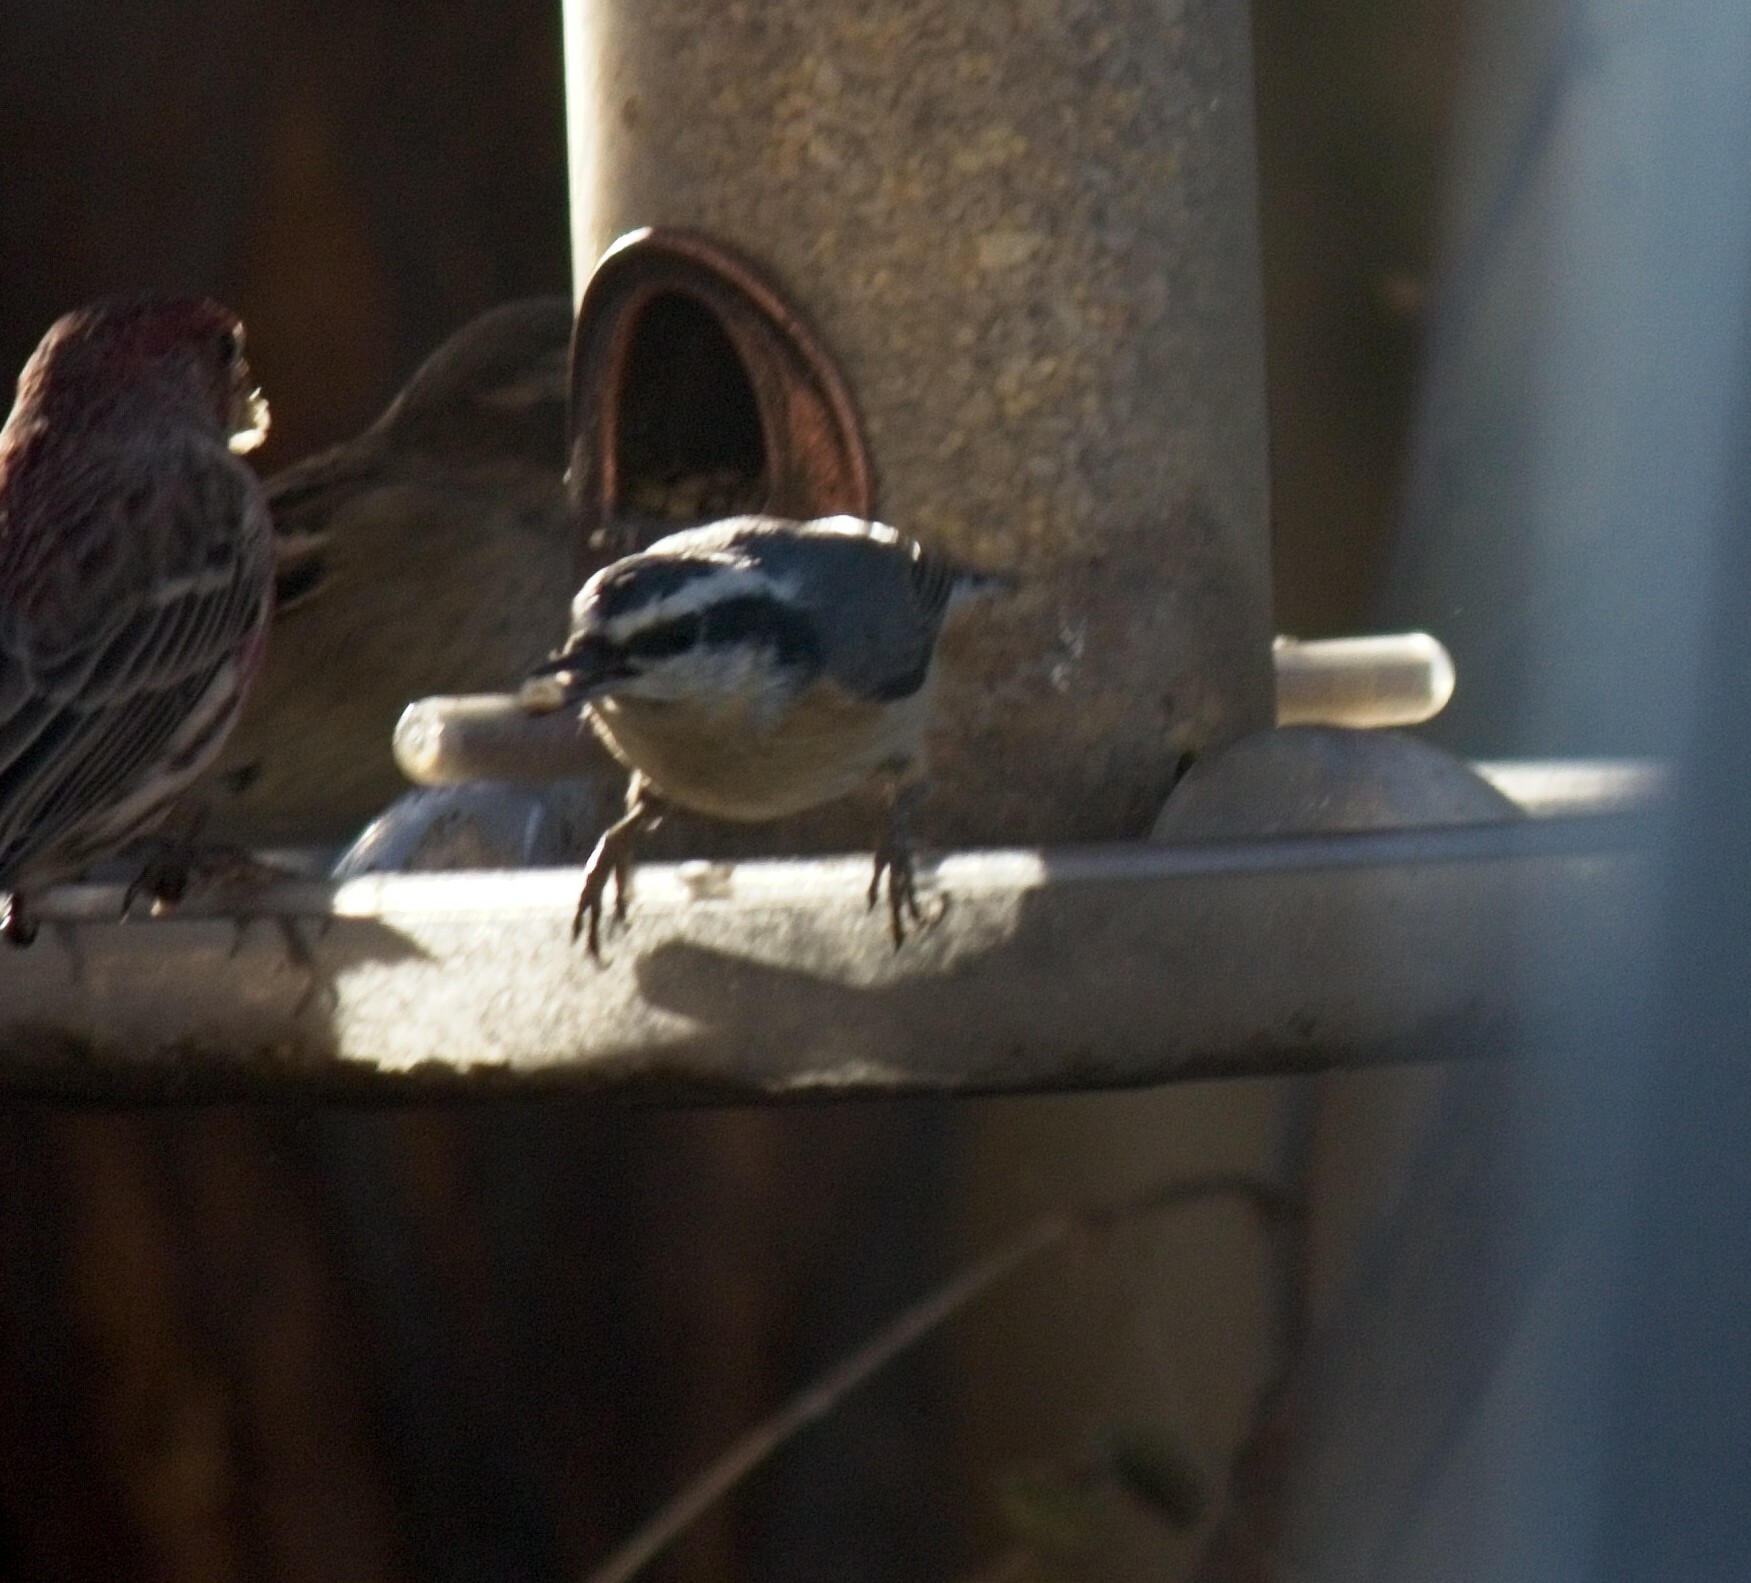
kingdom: Animalia
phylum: Chordata
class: Aves
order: Passeriformes
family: Sittidae
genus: Sitta
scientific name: Sitta canadensis
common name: Red-breasted nuthatch
